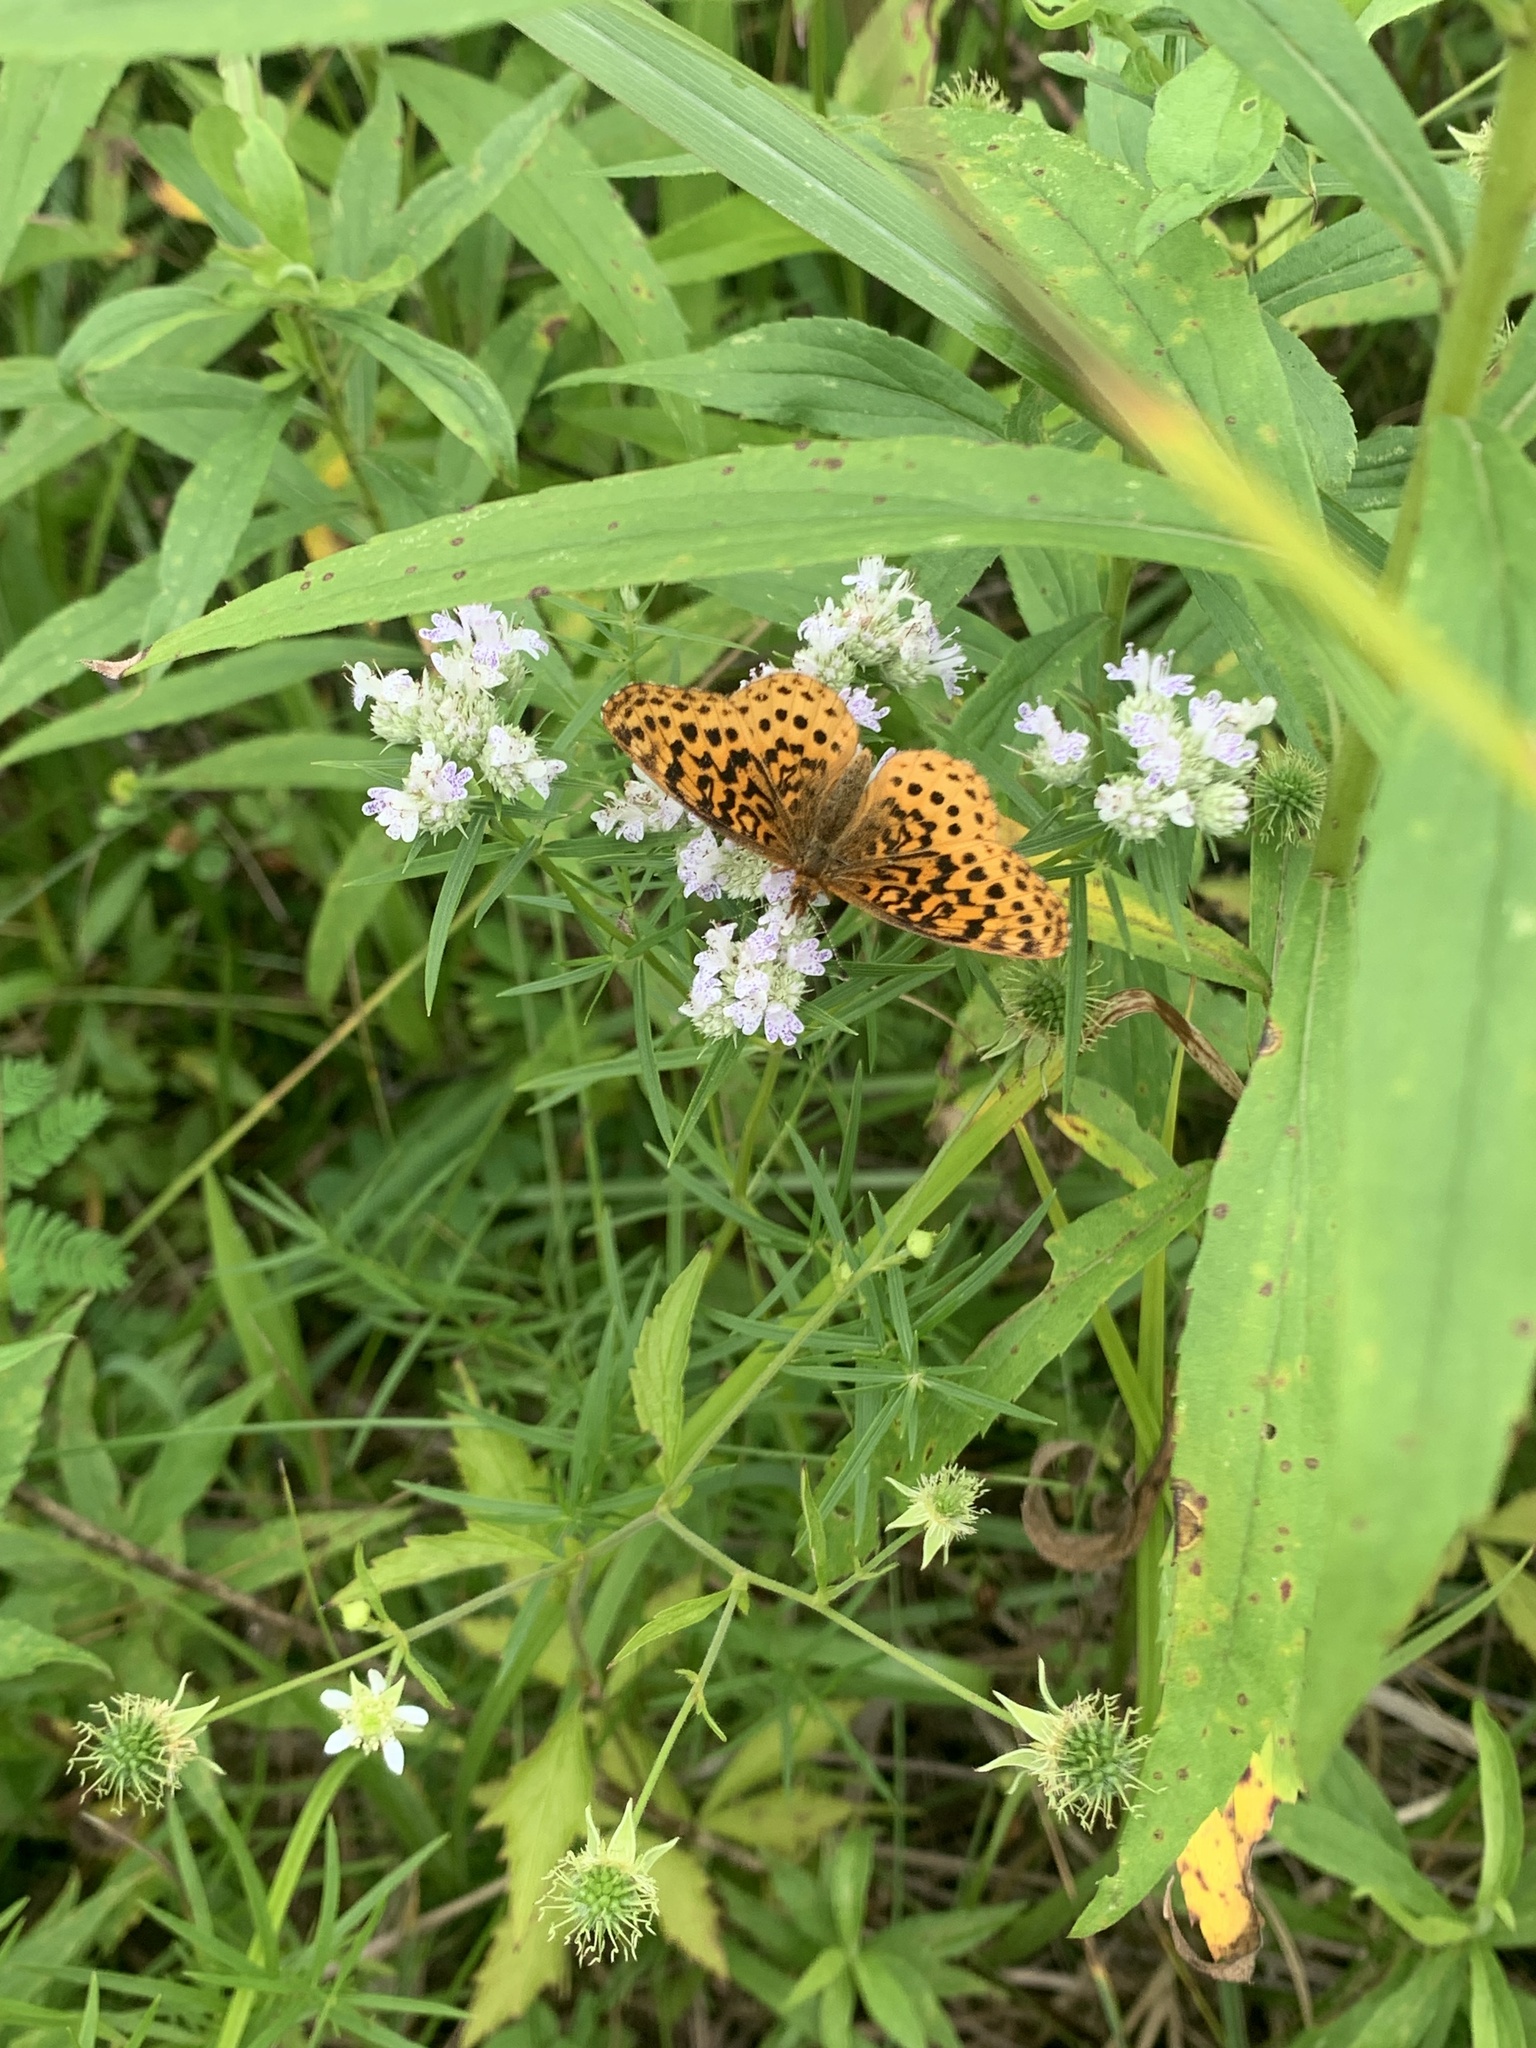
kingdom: Animalia
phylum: Arthropoda
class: Insecta
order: Lepidoptera
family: Nymphalidae
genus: Clossiana
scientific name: Clossiana toddi
